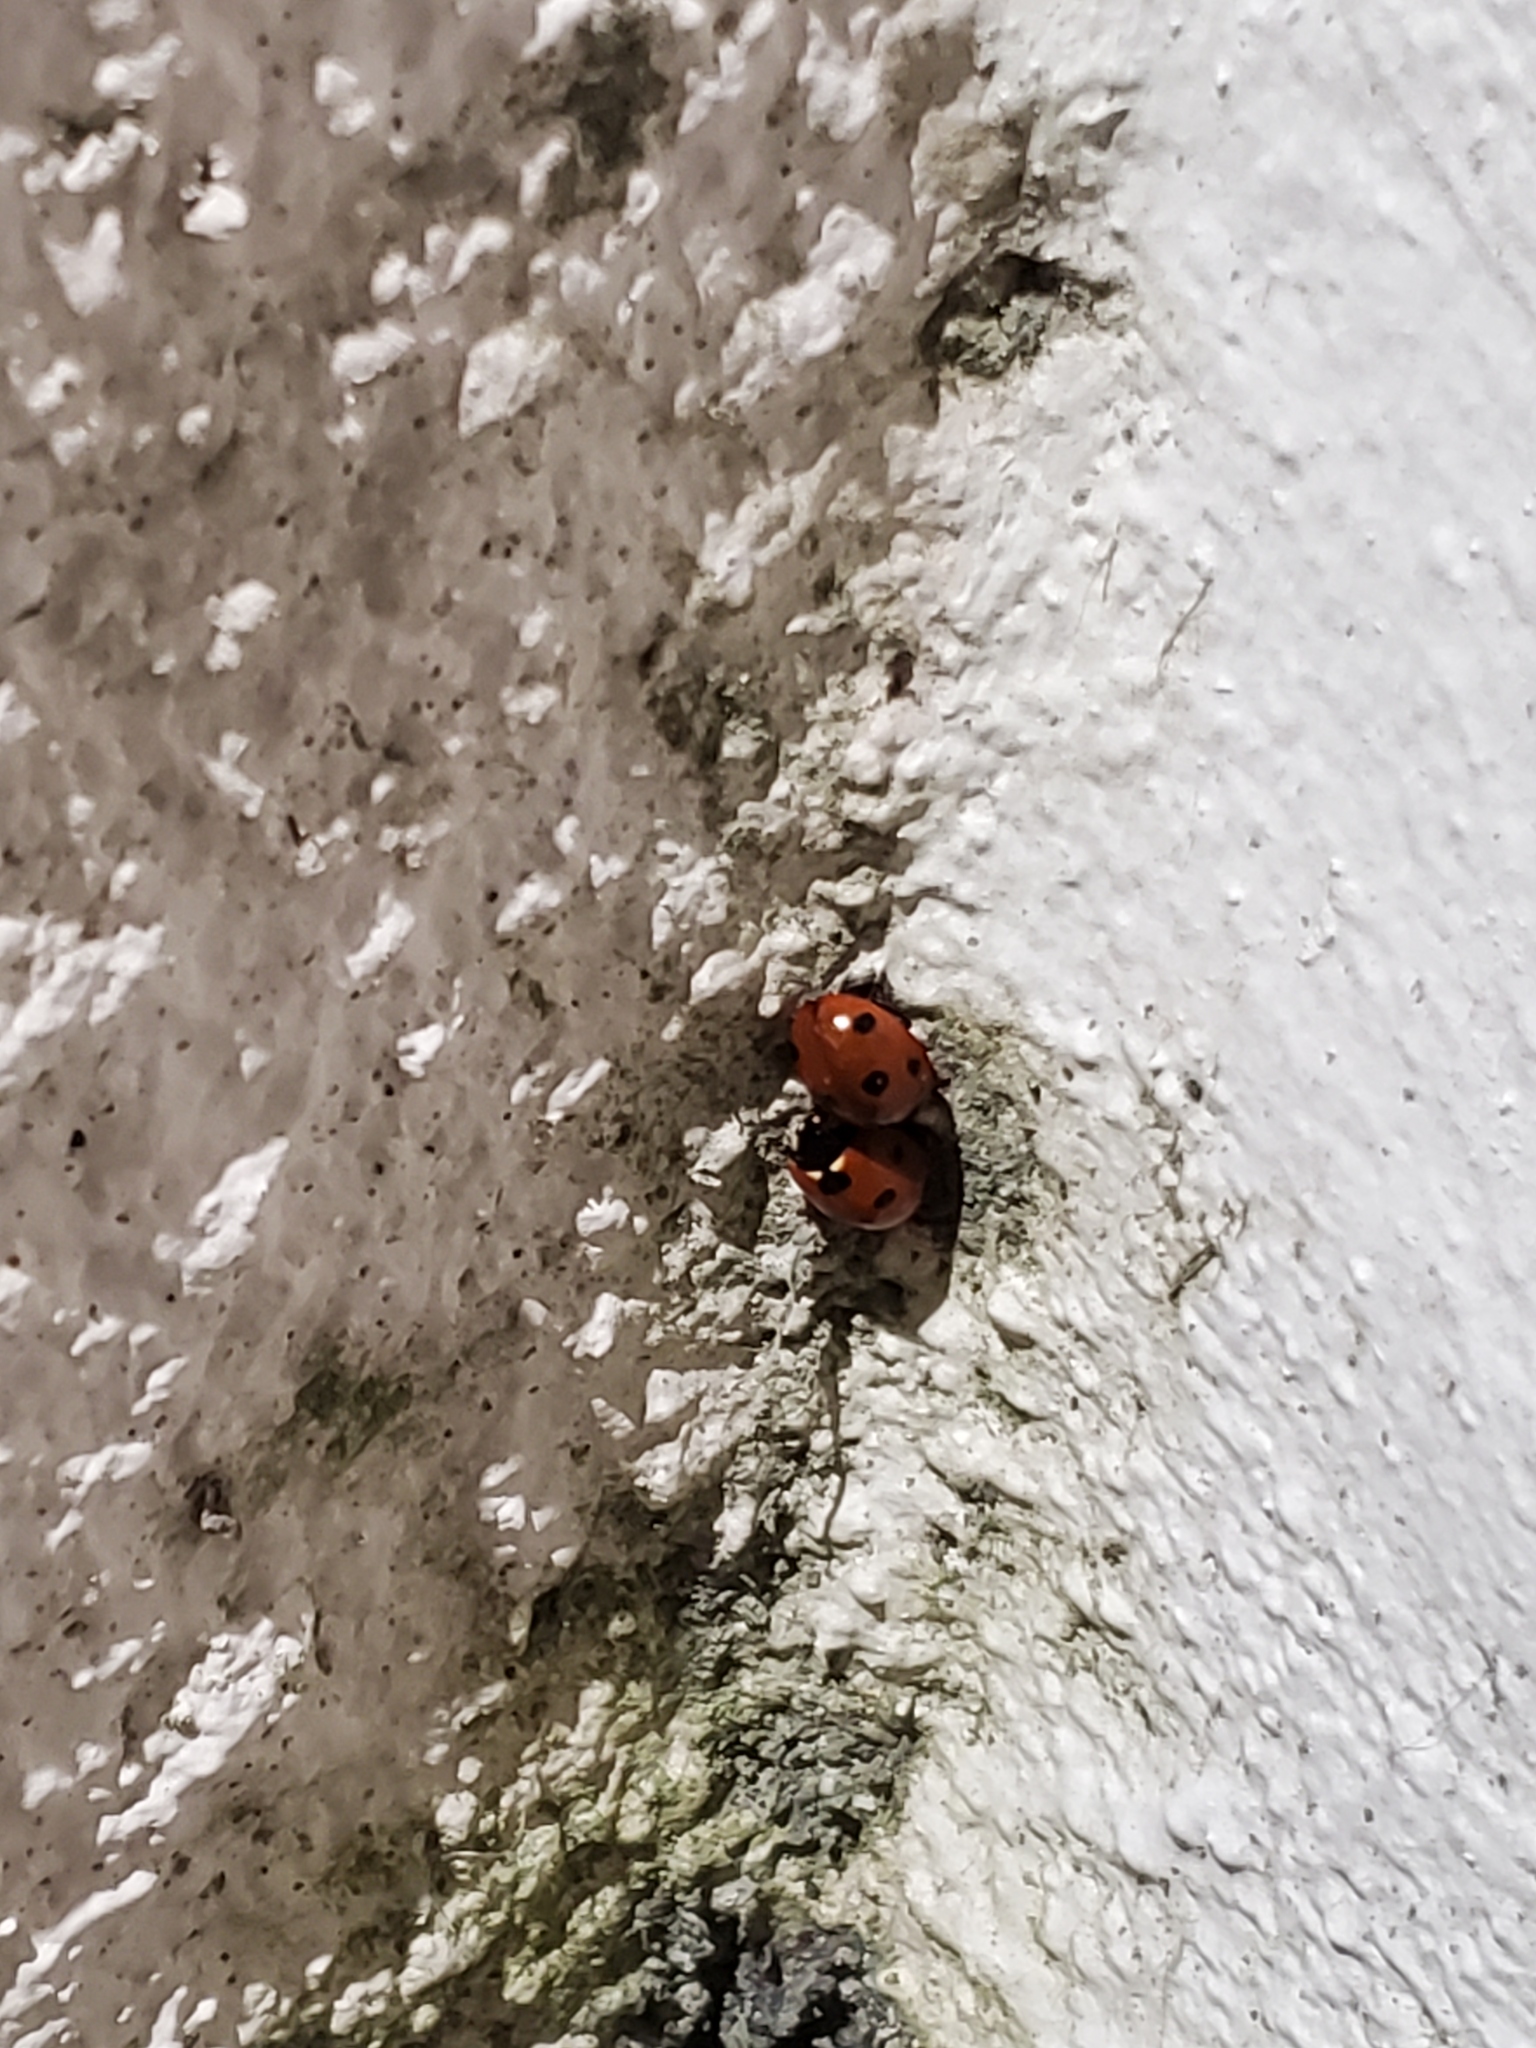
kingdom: Animalia
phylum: Arthropoda
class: Insecta
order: Coleoptera
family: Coccinellidae
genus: Coccinella
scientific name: Coccinella septempunctata
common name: Sevenspotted lady beetle
